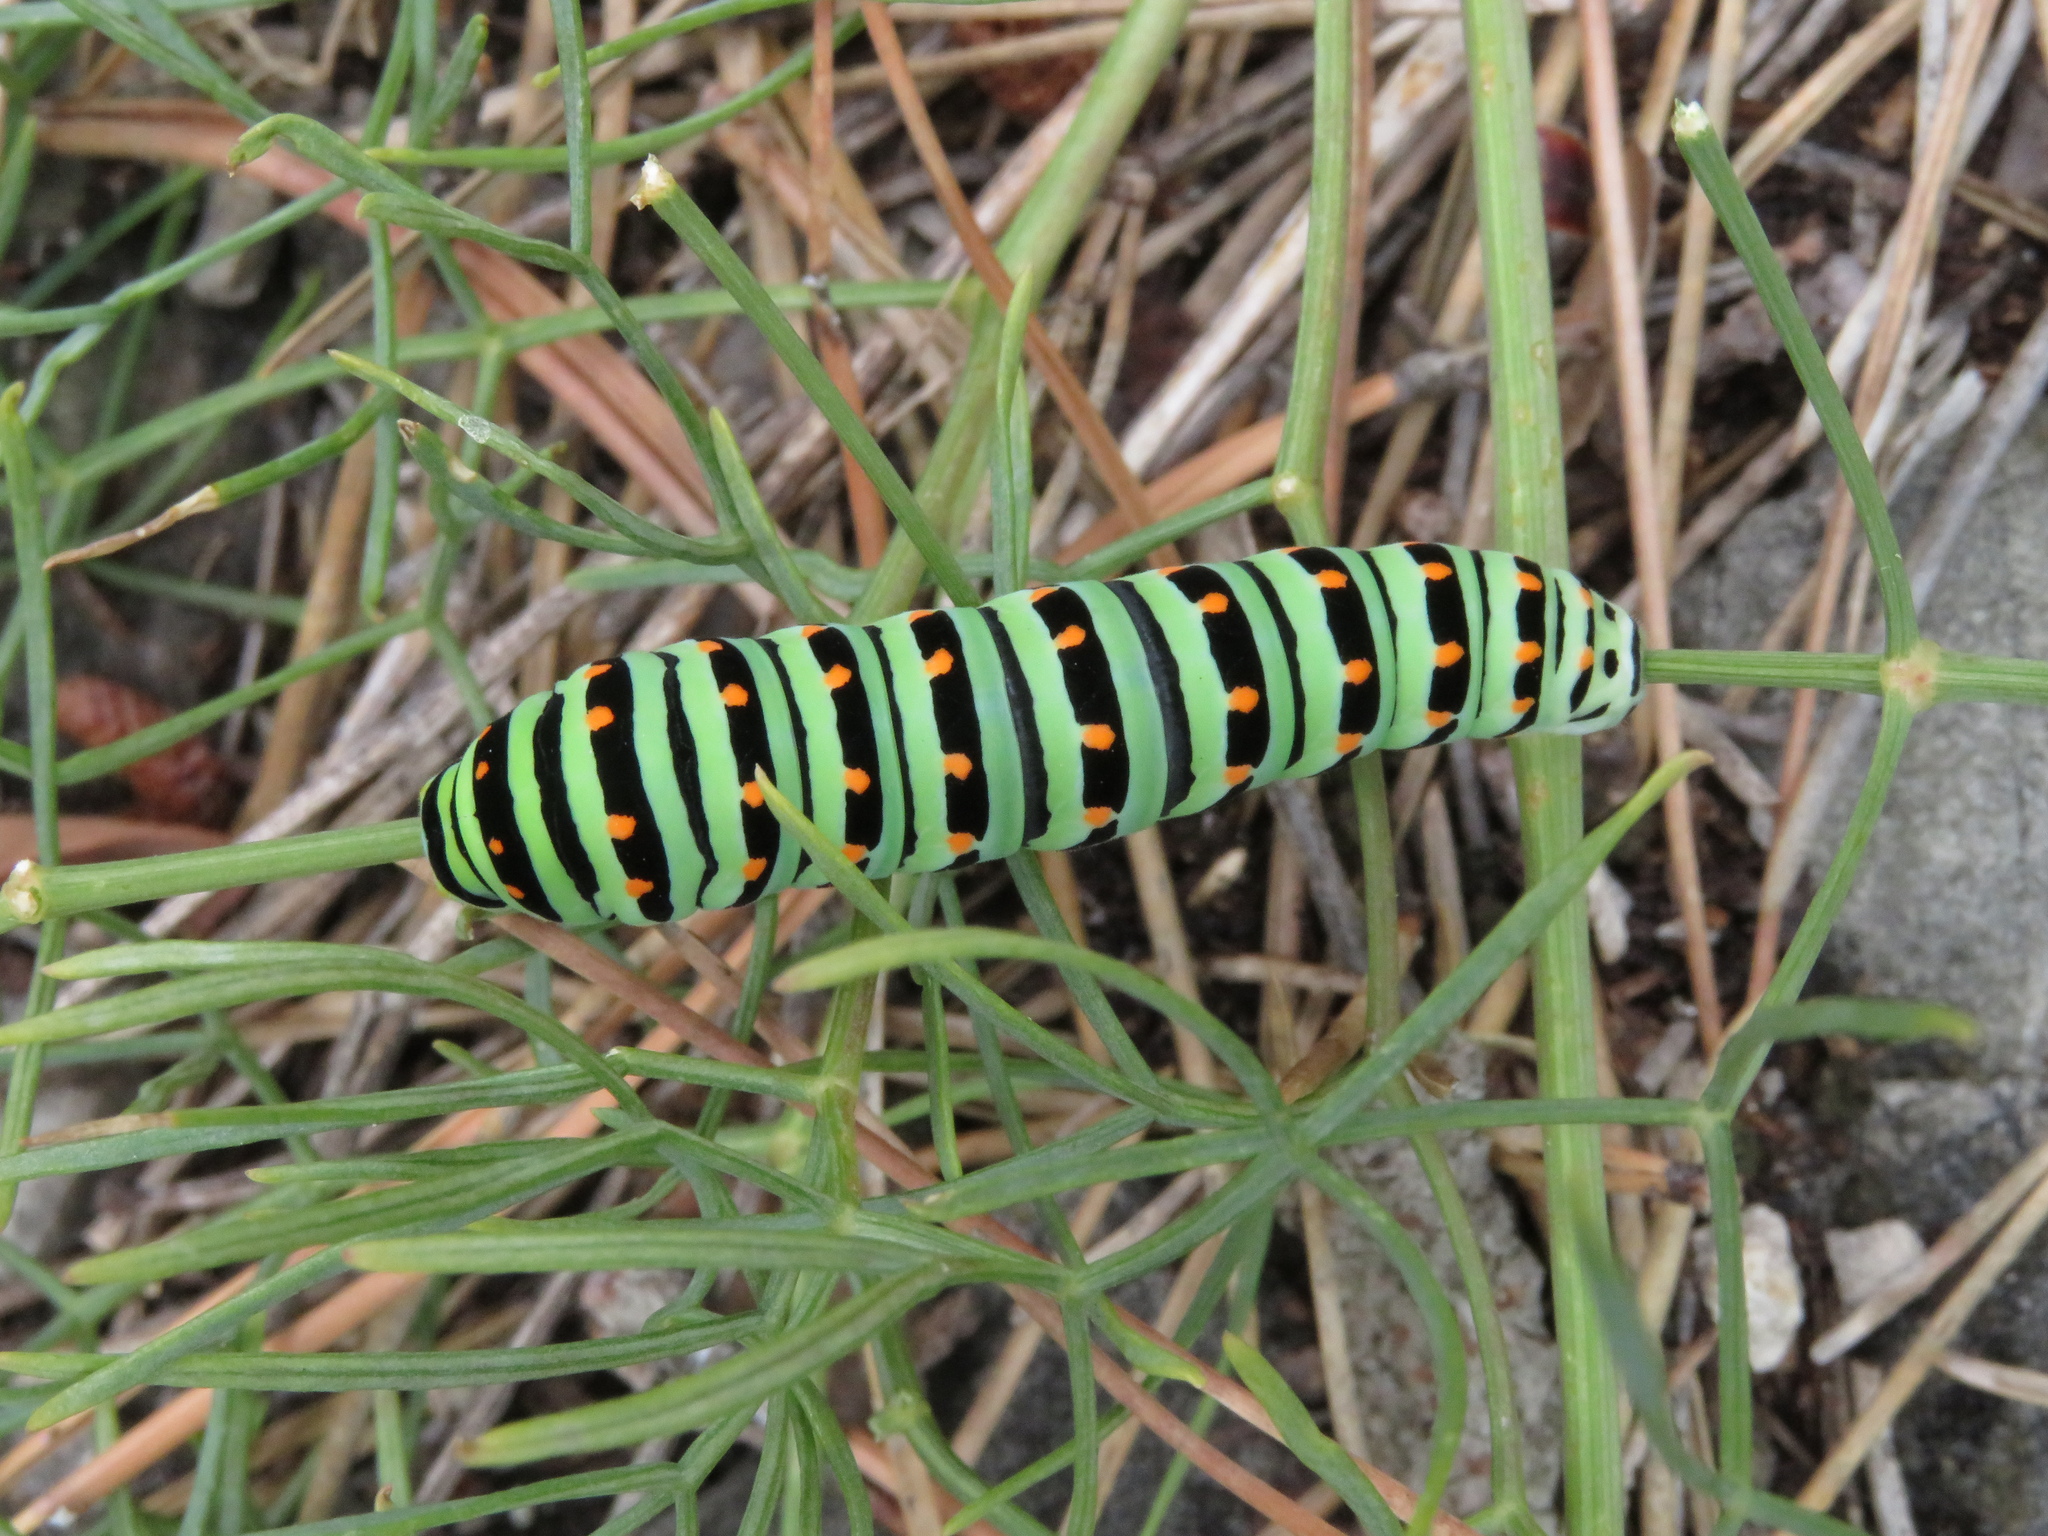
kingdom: Animalia
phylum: Arthropoda
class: Insecta
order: Lepidoptera
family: Papilionidae
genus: Papilio
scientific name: Papilio machaon
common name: Swallowtail
